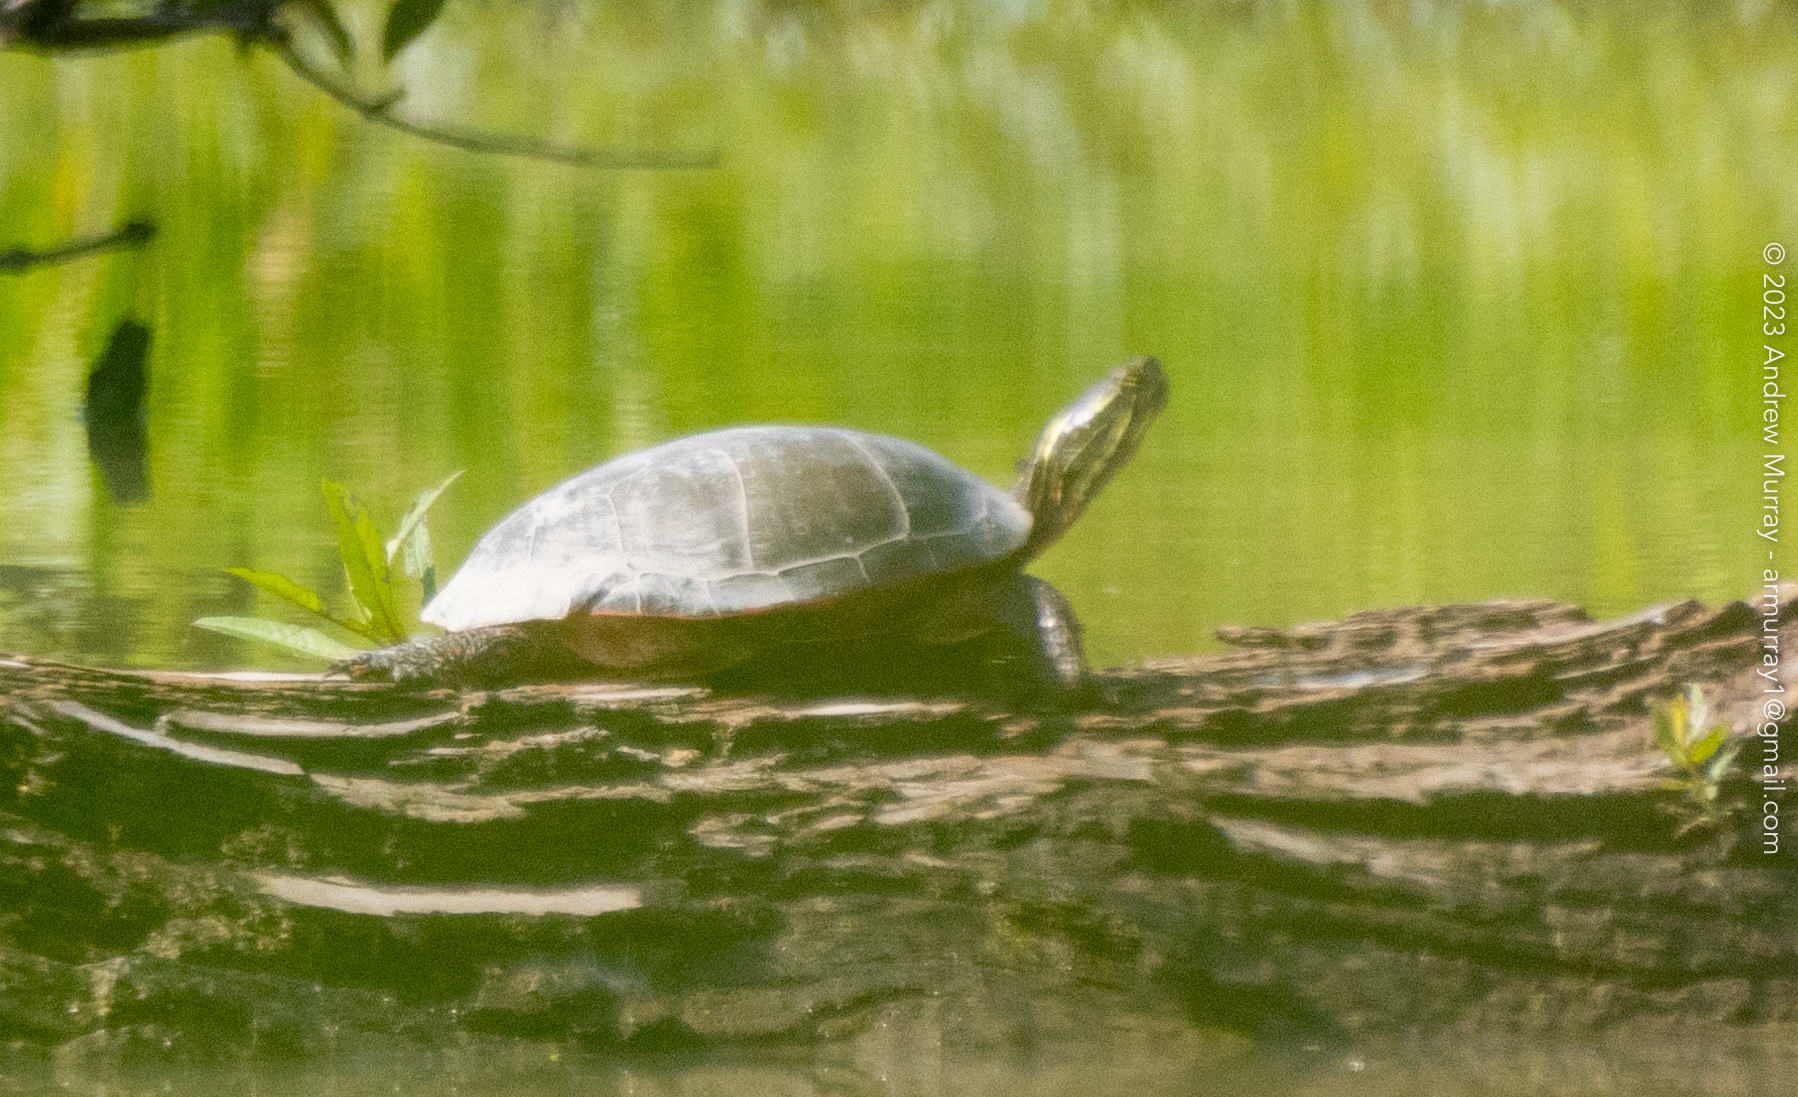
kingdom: Animalia
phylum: Chordata
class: Testudines
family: Emydidae
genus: Chrysemys
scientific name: Chrysemys picta
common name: Painted turtle
